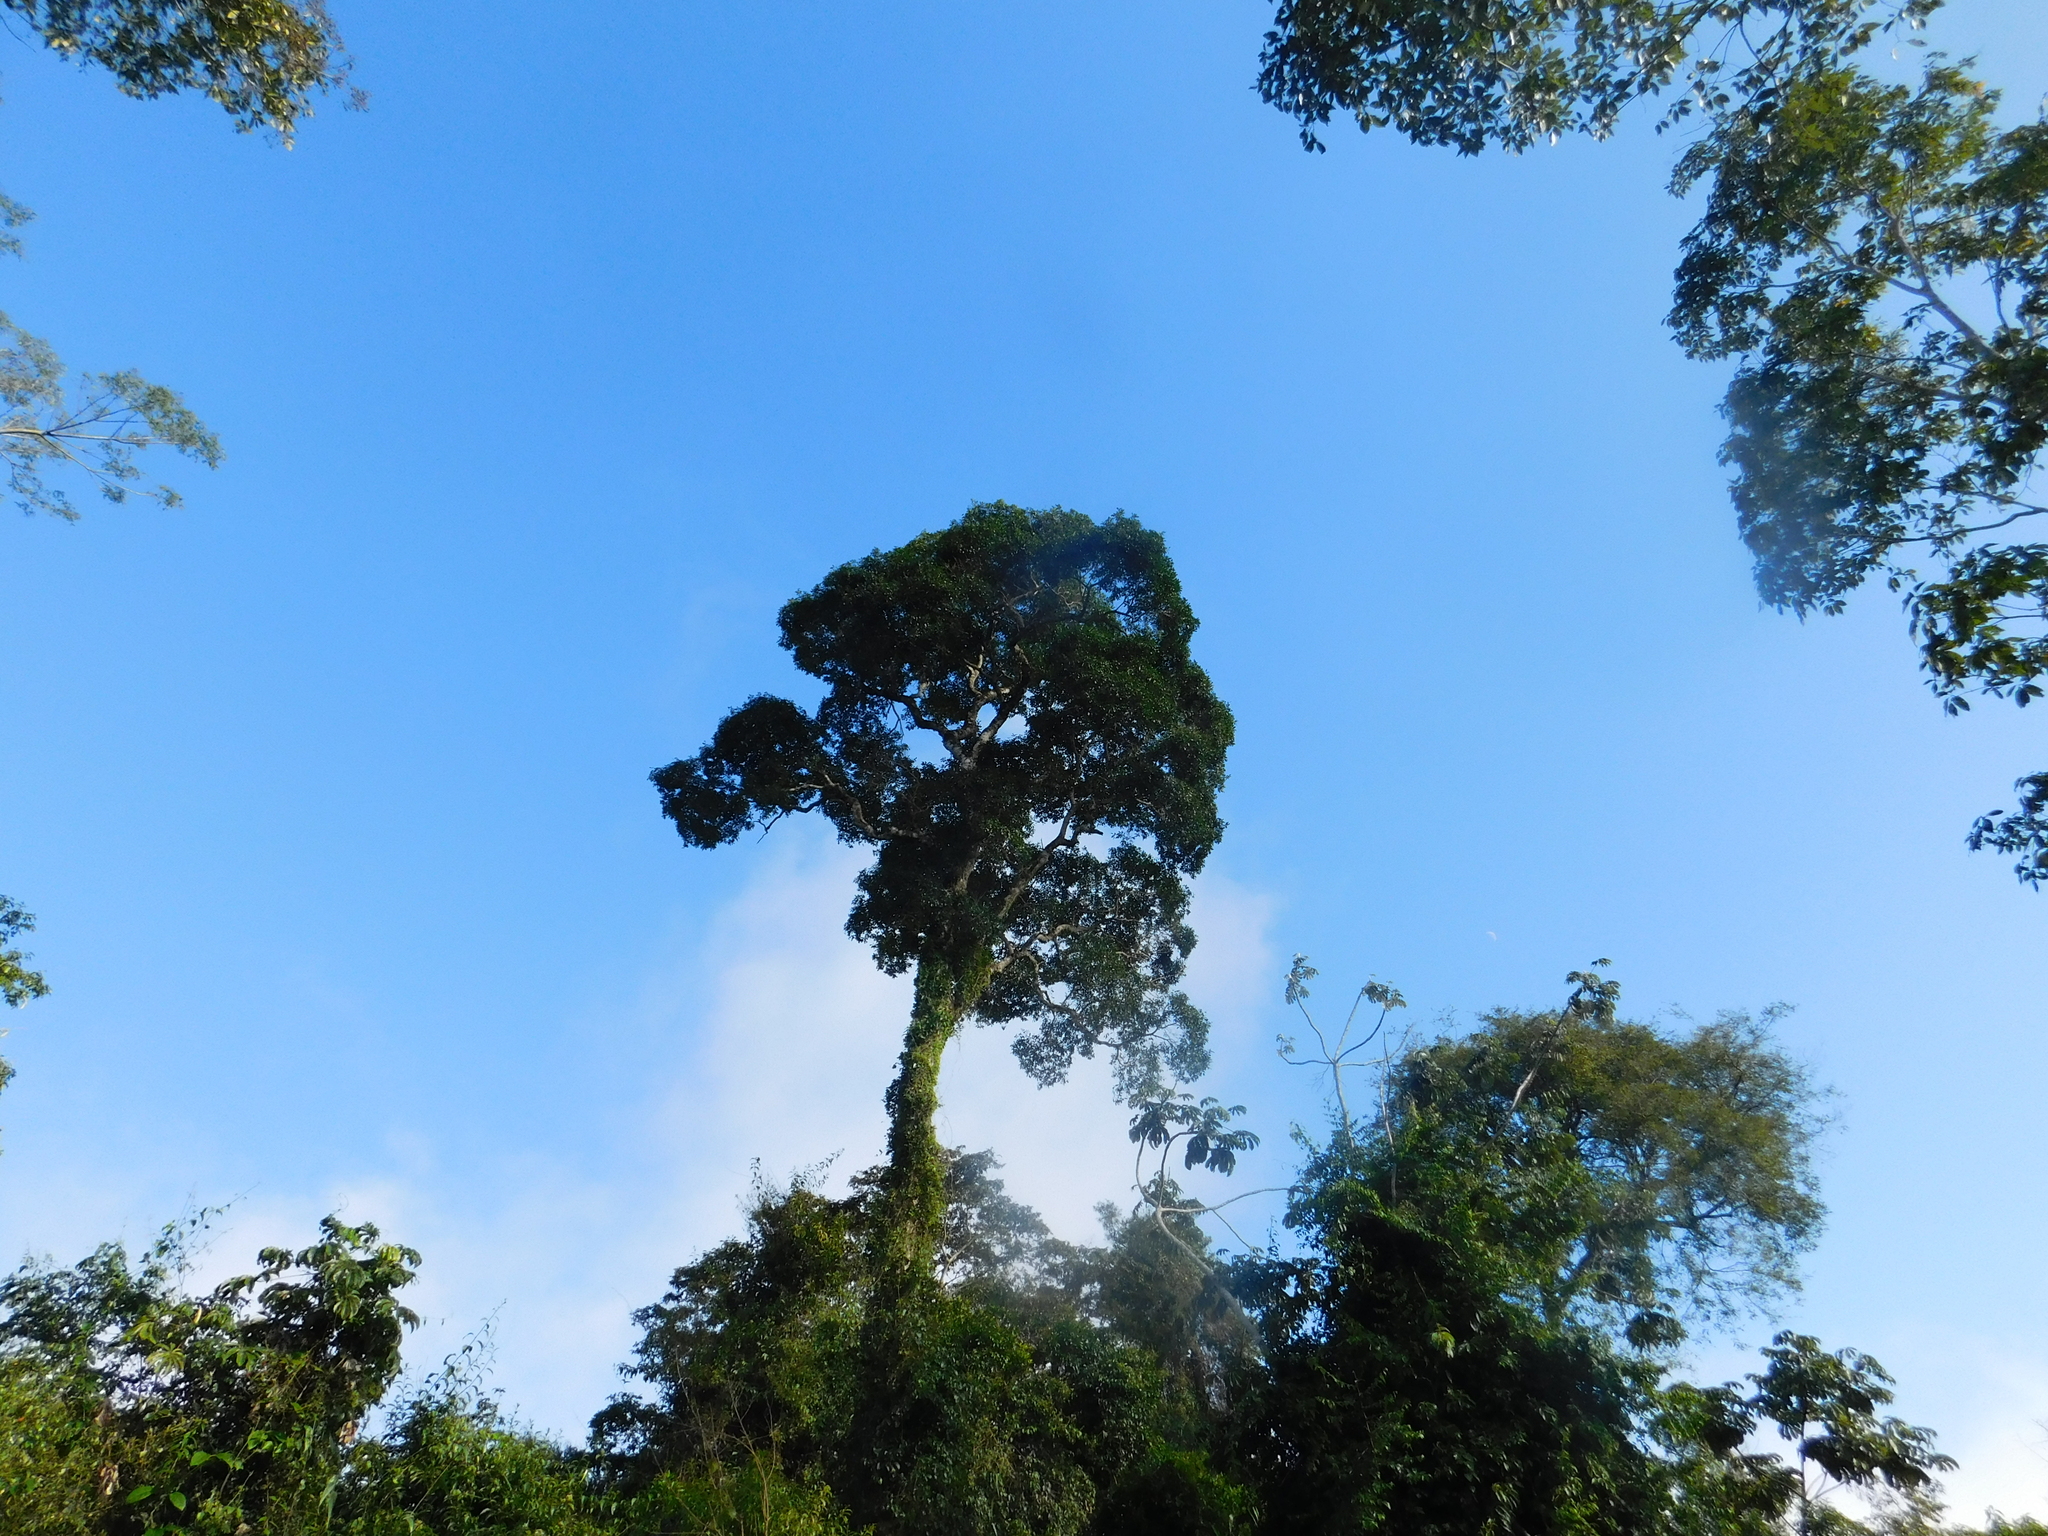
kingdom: Plantae
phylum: Tracheophyta
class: Magnoliopsida
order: Gentianales
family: Apocynaceae
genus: Aspidosperma
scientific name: Aspidosperma polyneuron
